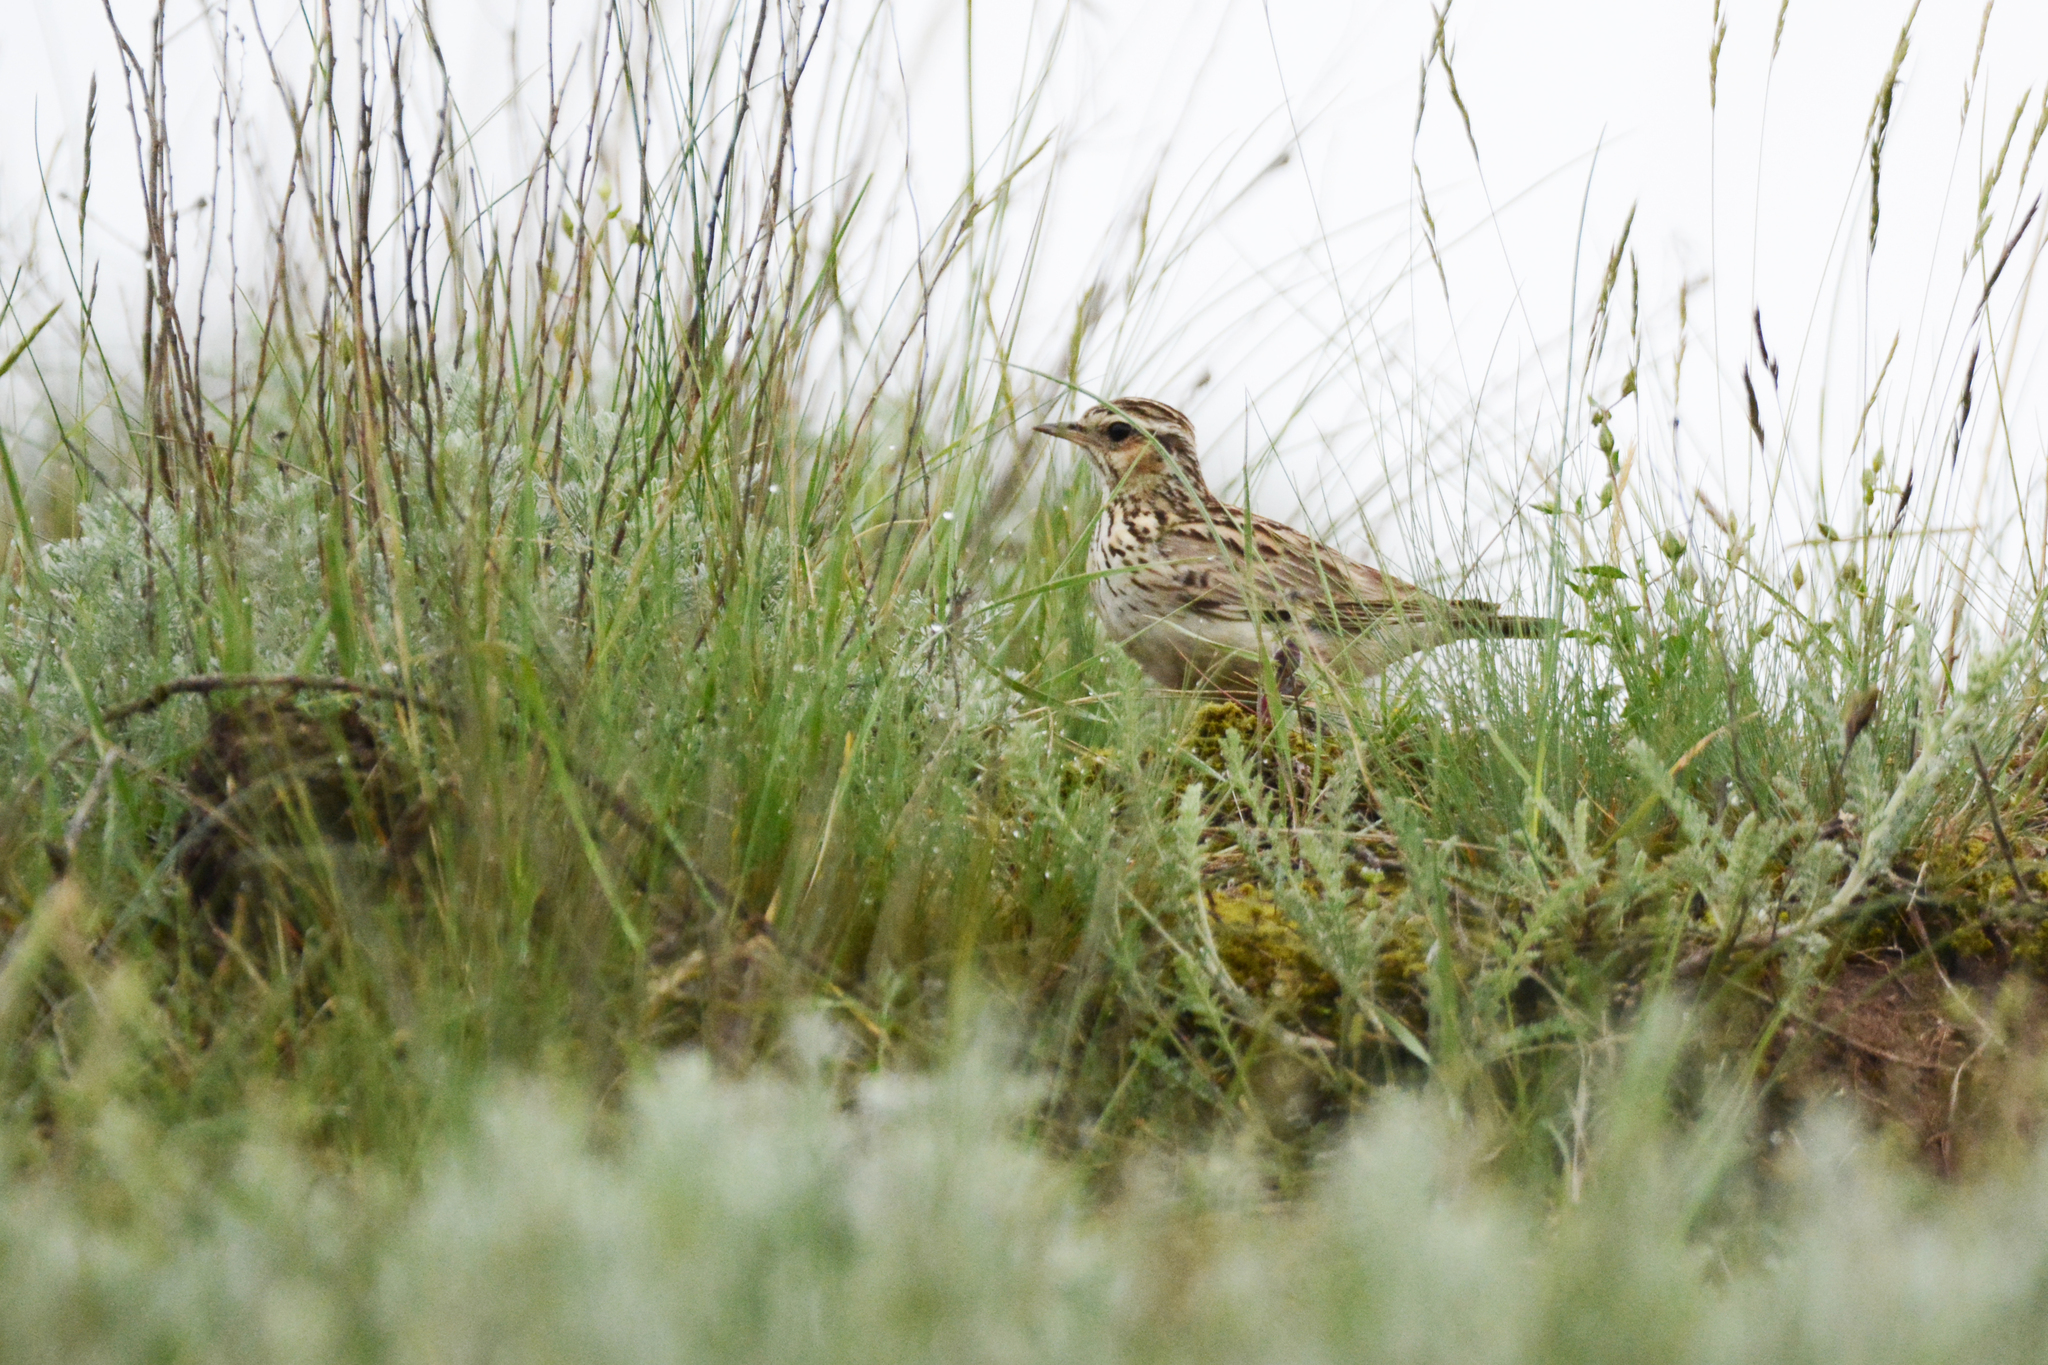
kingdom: Animalia
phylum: Chordata
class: Aves
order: Passeriformes
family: Alaudidae
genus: Lullula
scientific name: Lullula arborea
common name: Woodlark
